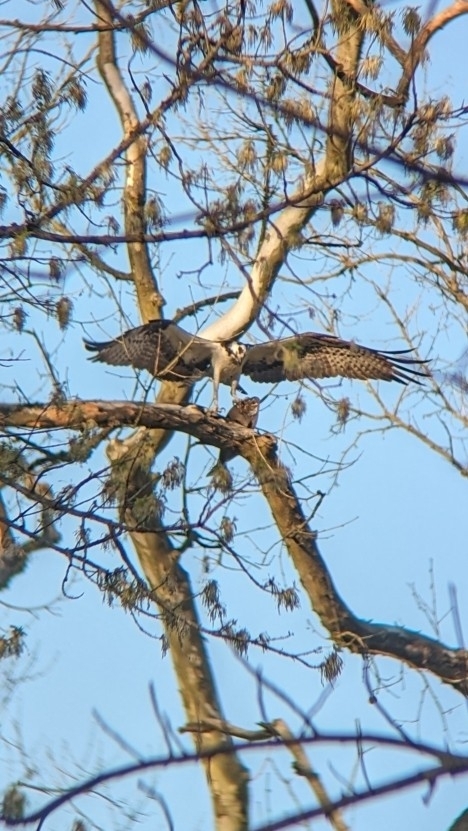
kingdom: Animalia
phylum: Chordata
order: Clupeiformes
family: Clupeidae
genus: Dorosoma
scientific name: Dorosoma cepedianum
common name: Gizzard shad
